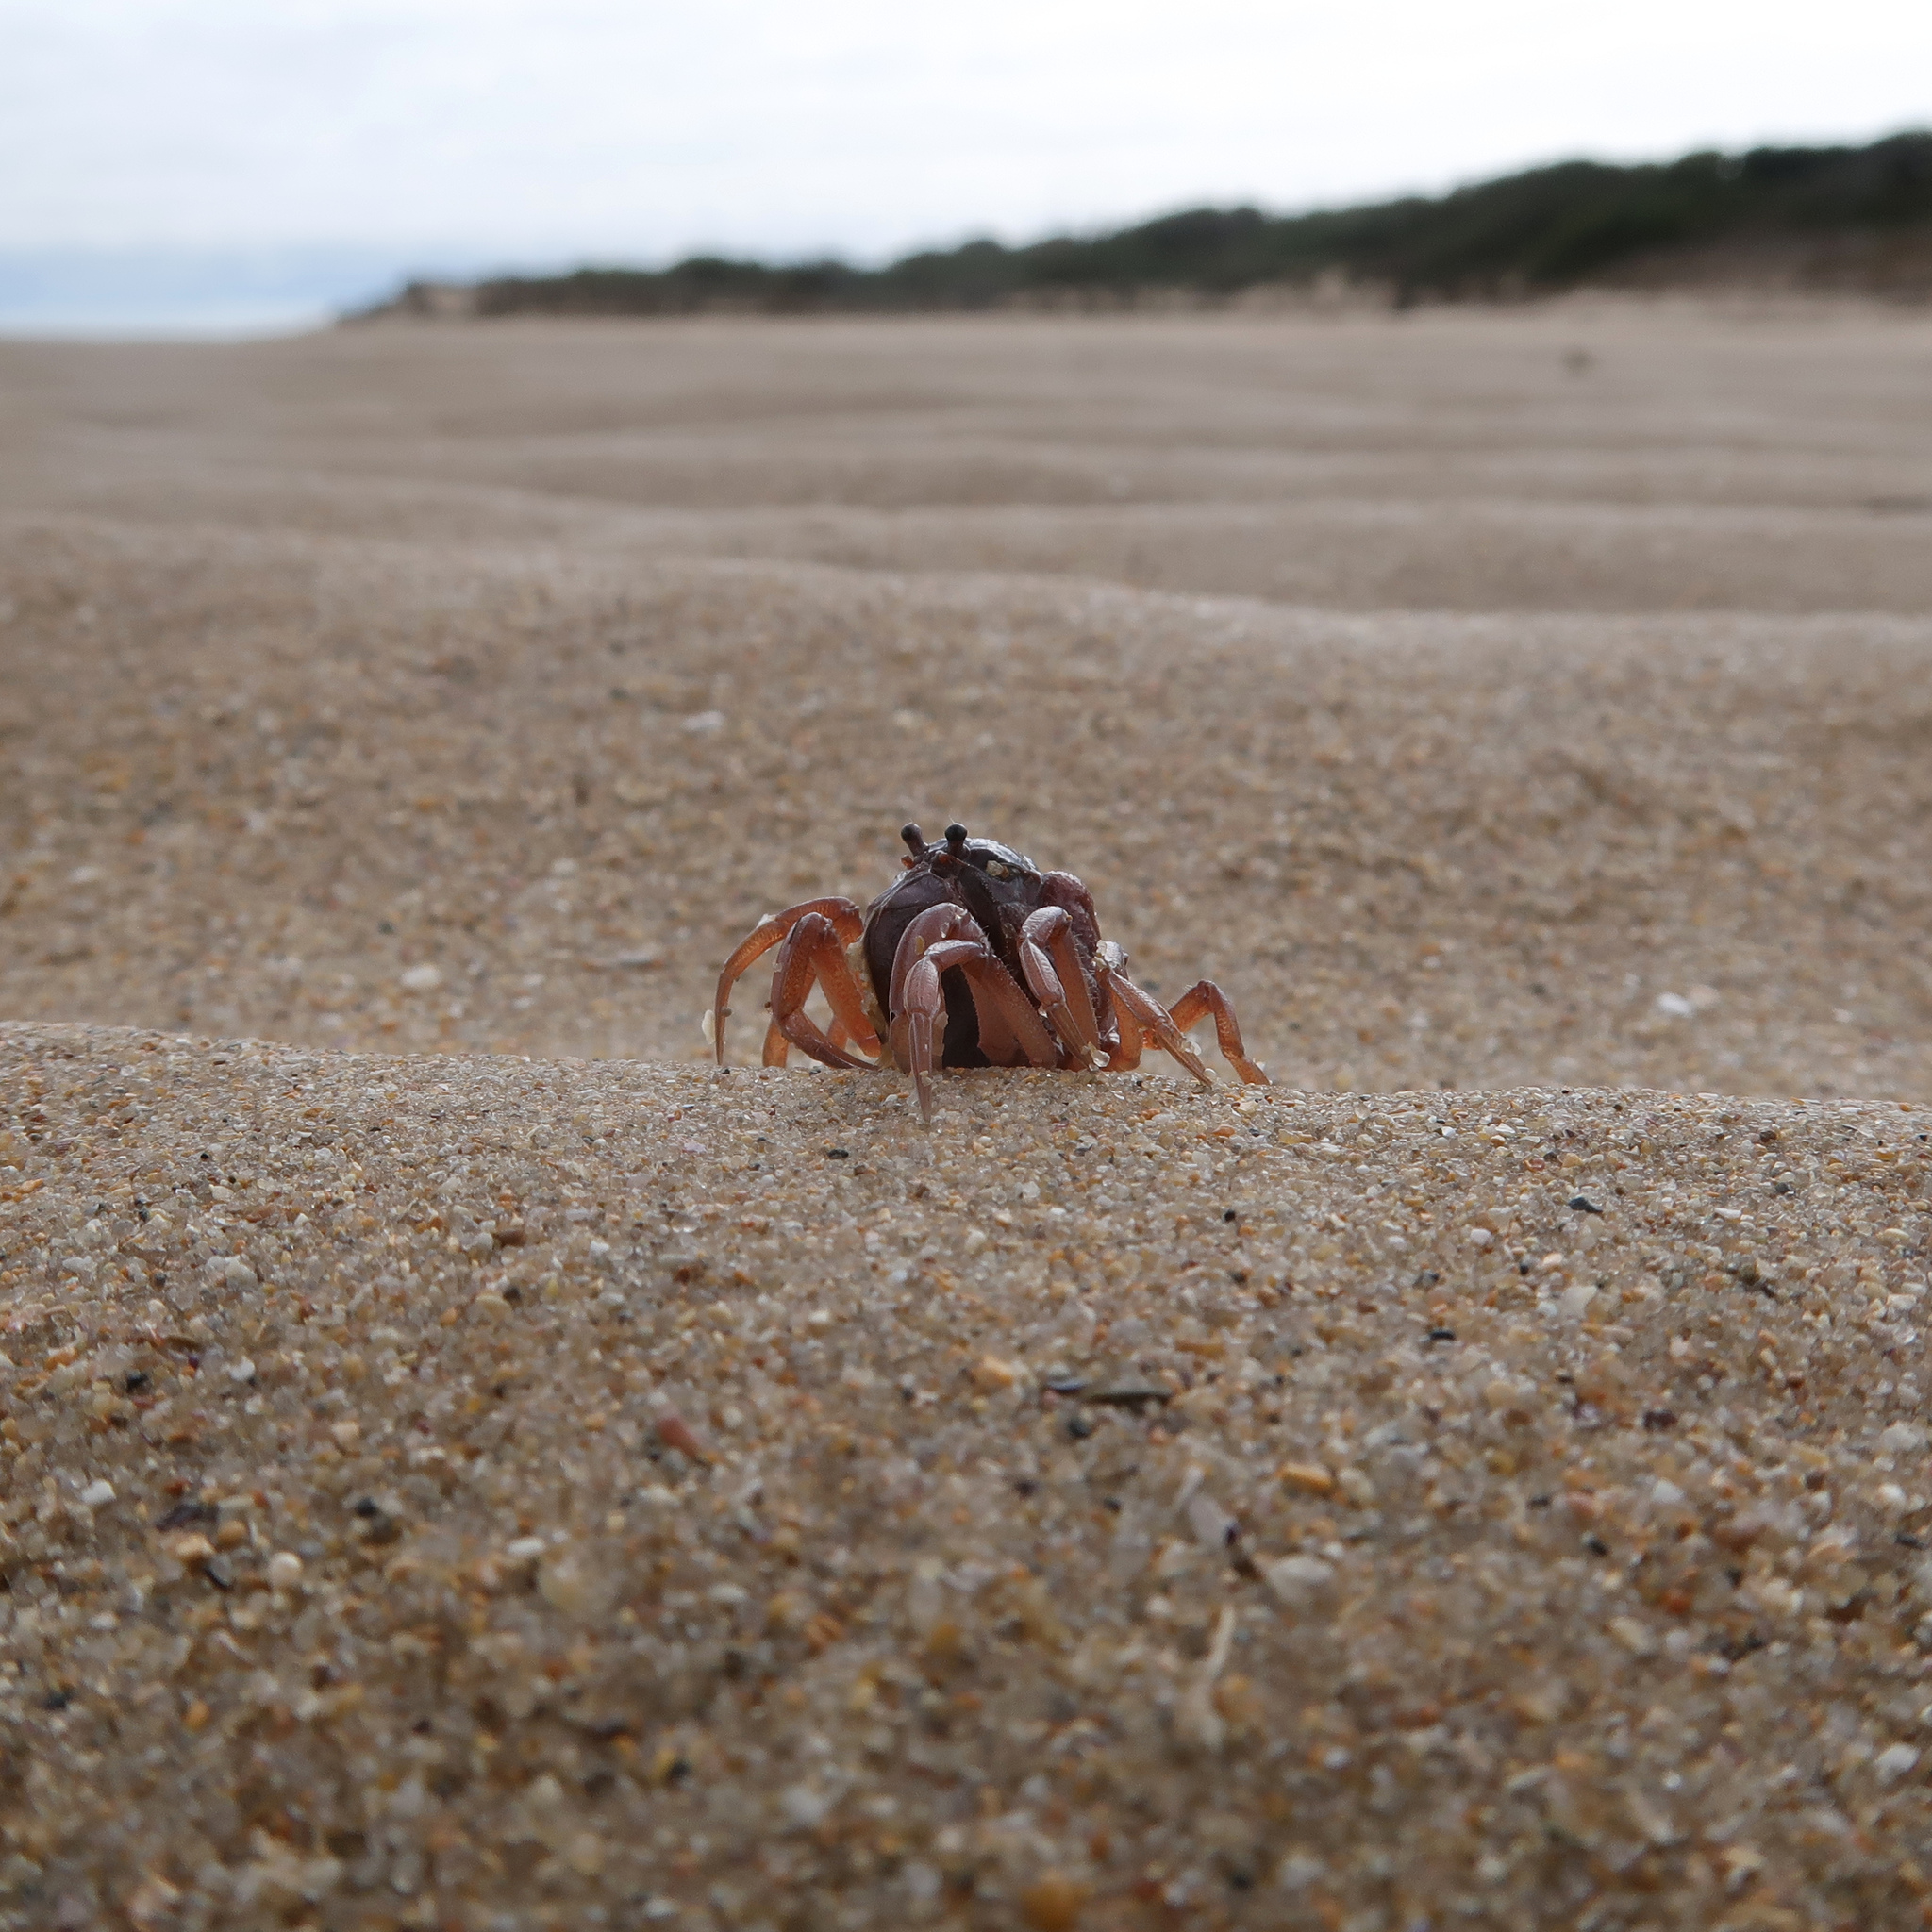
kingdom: Animalia
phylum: Arthropoda
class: Malacostraca
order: Decapoda
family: Mictyridae
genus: Mictyris
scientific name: Mictyris platycheles
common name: Dark blue soldier crab
